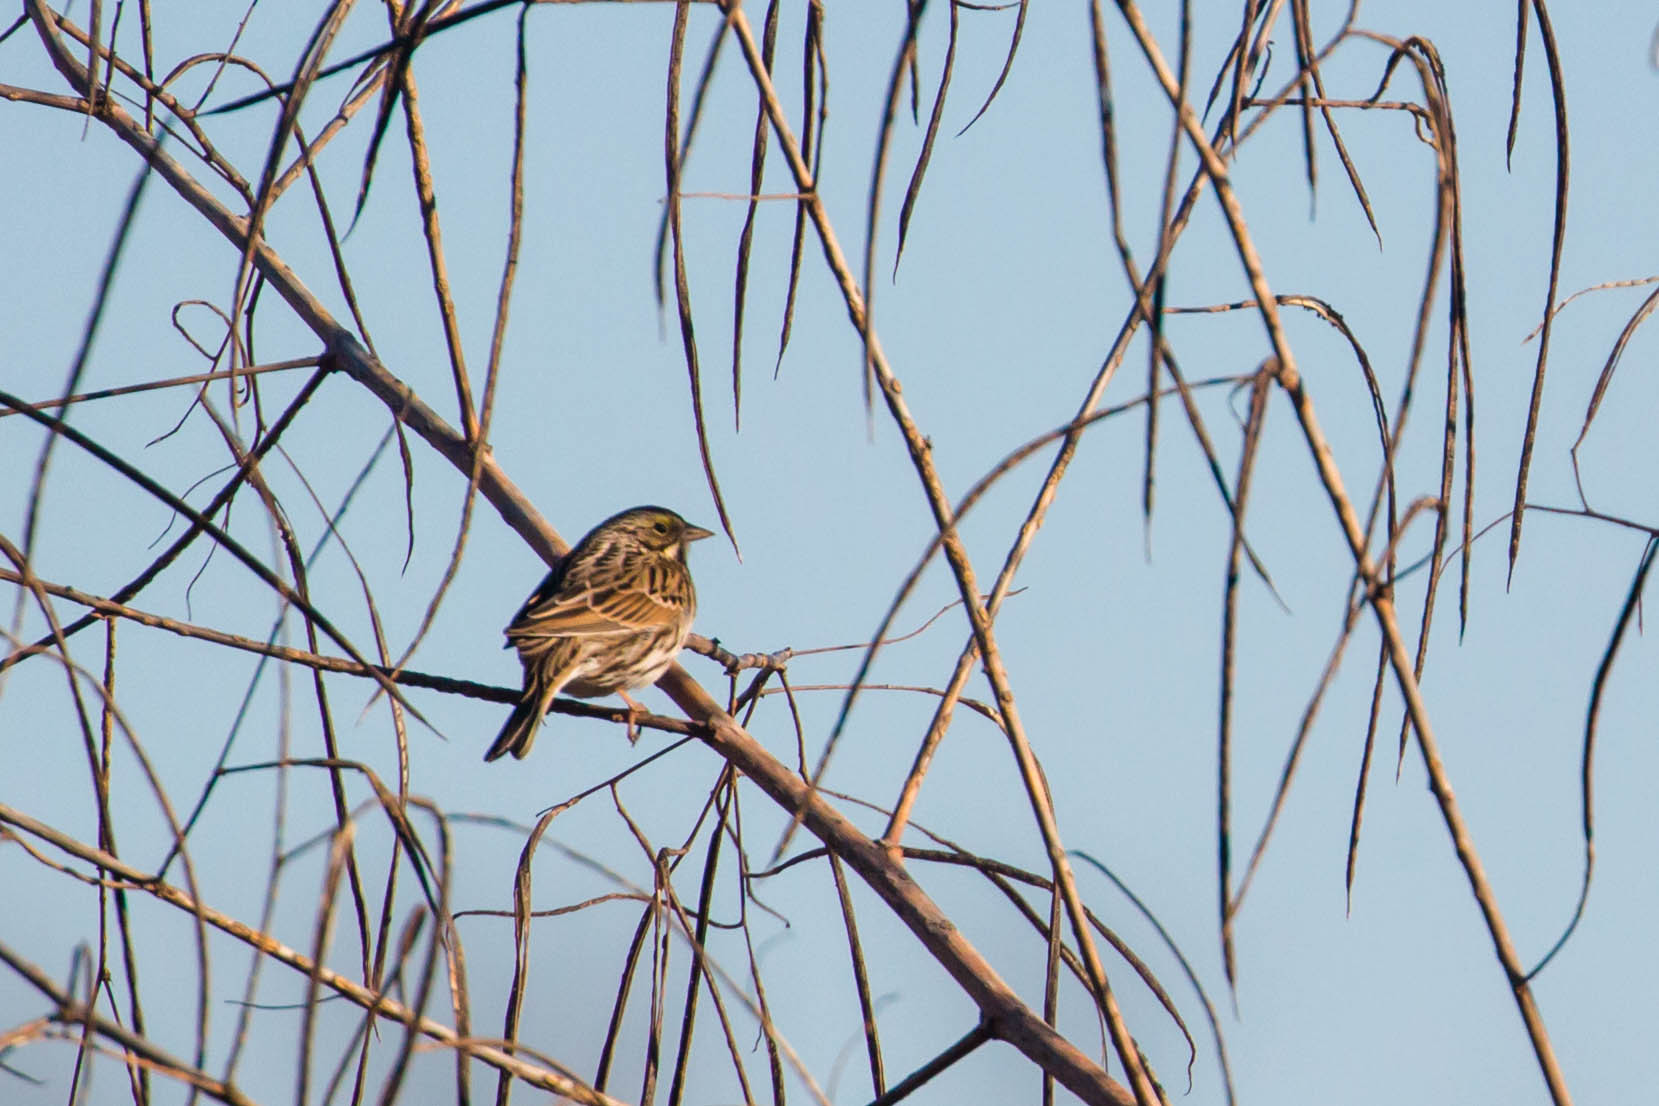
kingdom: Animalia
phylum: Chordata
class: Aves
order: Passeriformes
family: Passerellidae
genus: Passerculus
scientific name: Passerculus sandwichensis
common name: Savannah sparrow
